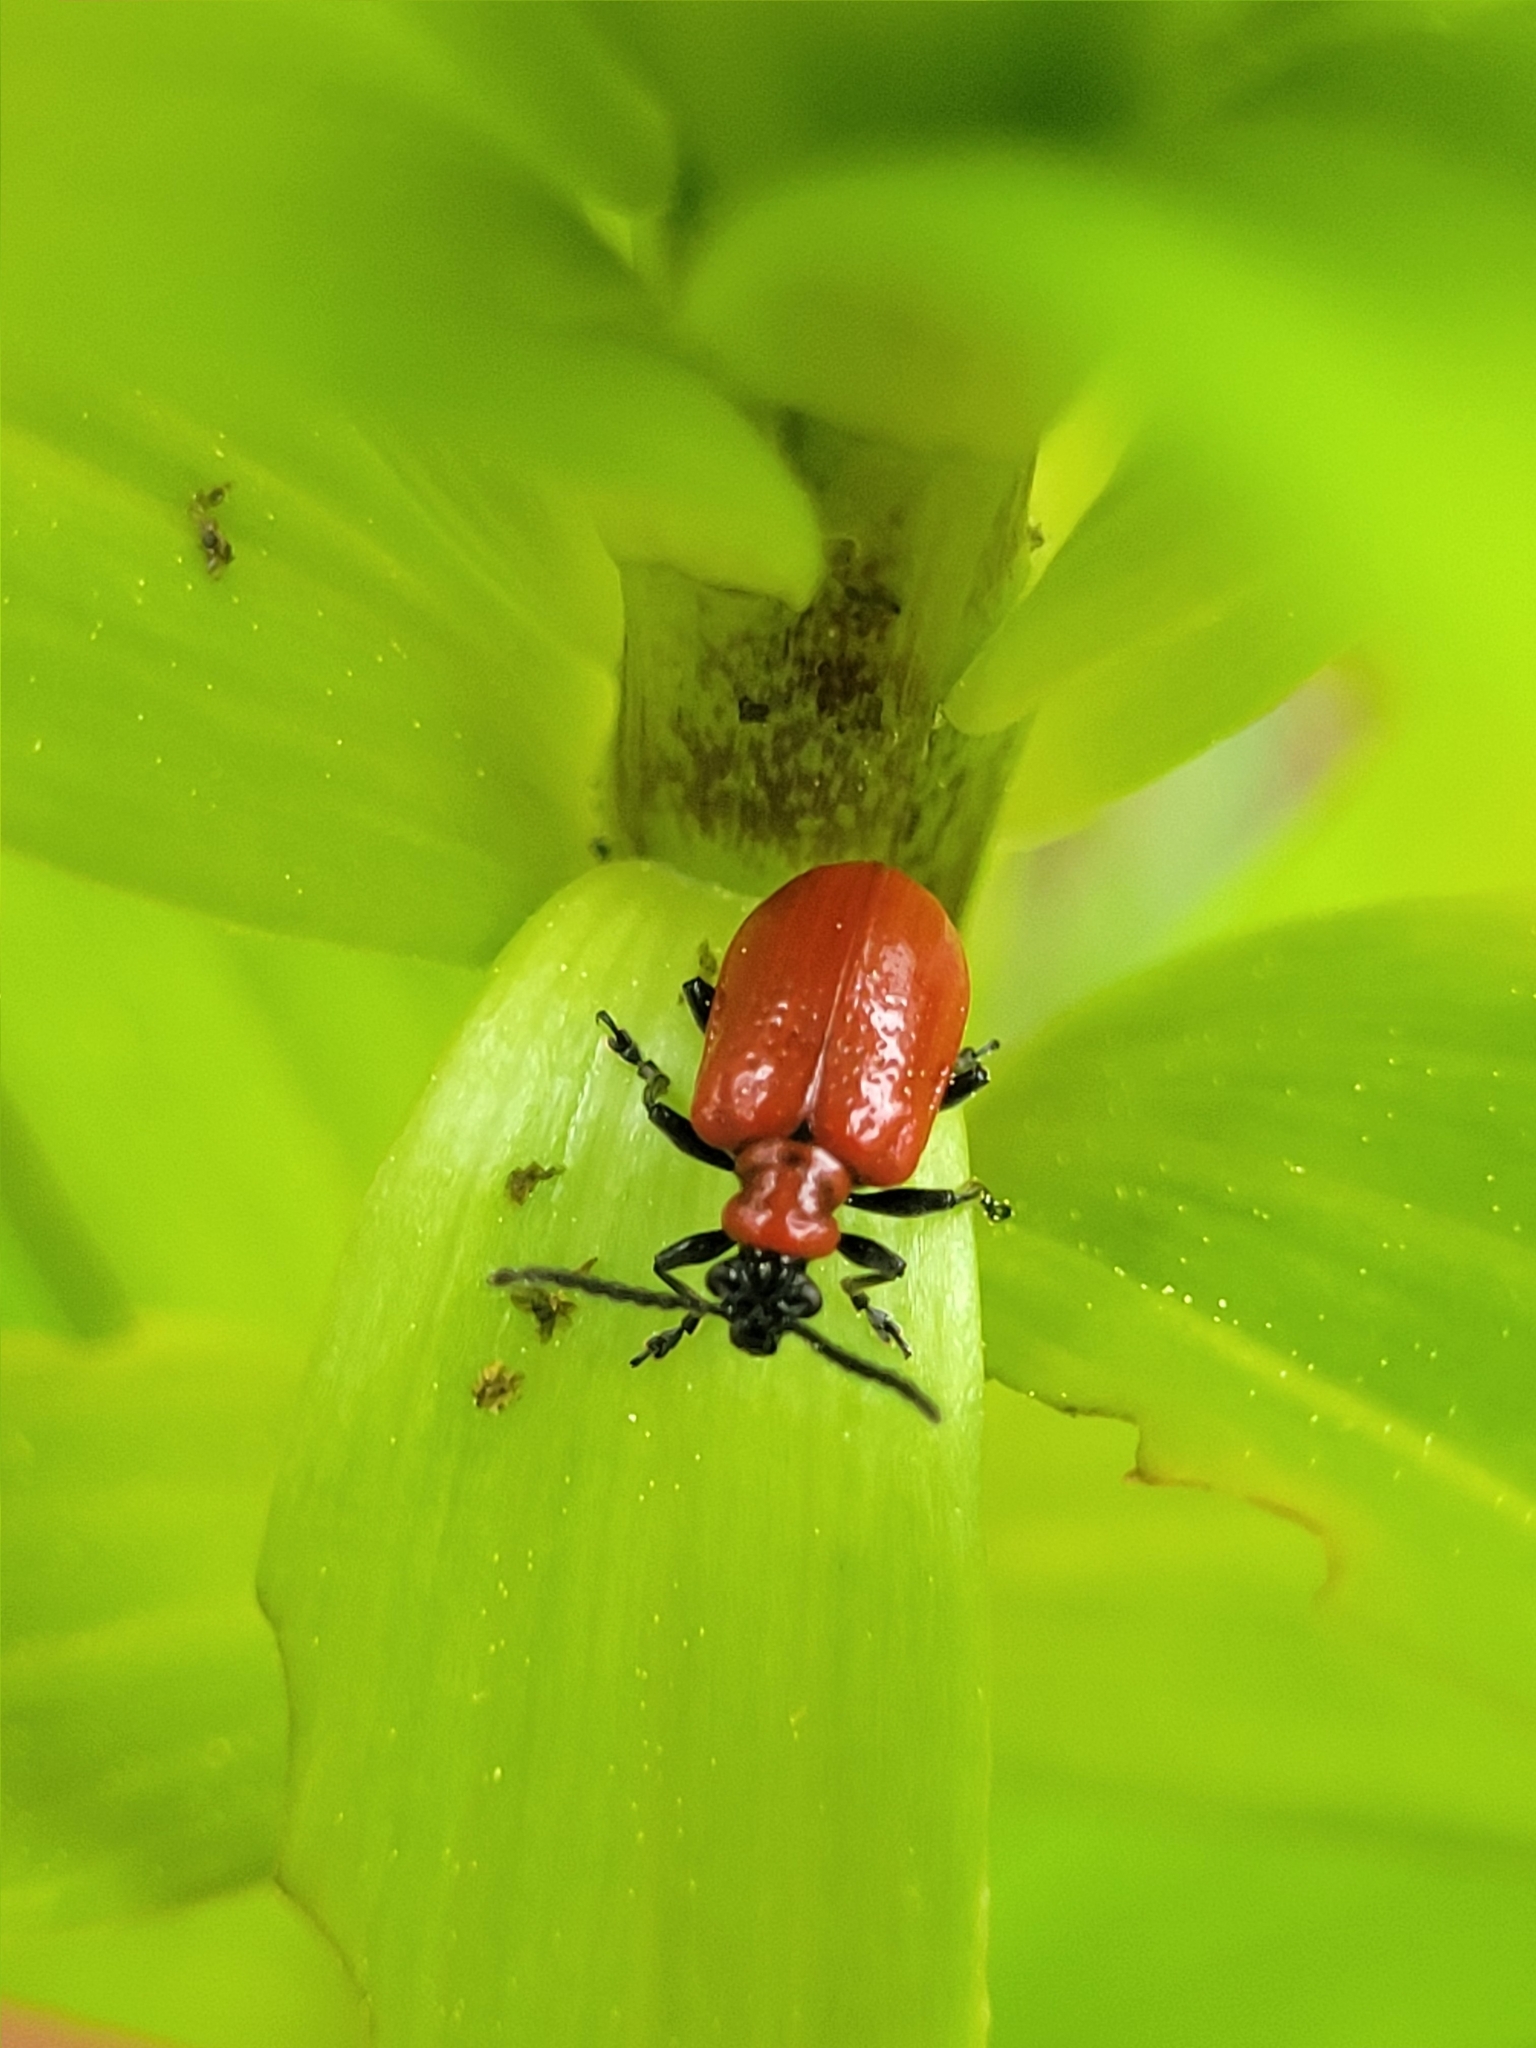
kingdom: Animalia
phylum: Arthropoda
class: Insecta
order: Coleoptera
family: Chrysomelidae
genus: Lilioceris
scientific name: Lilioceris lilii
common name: Lily beetle
